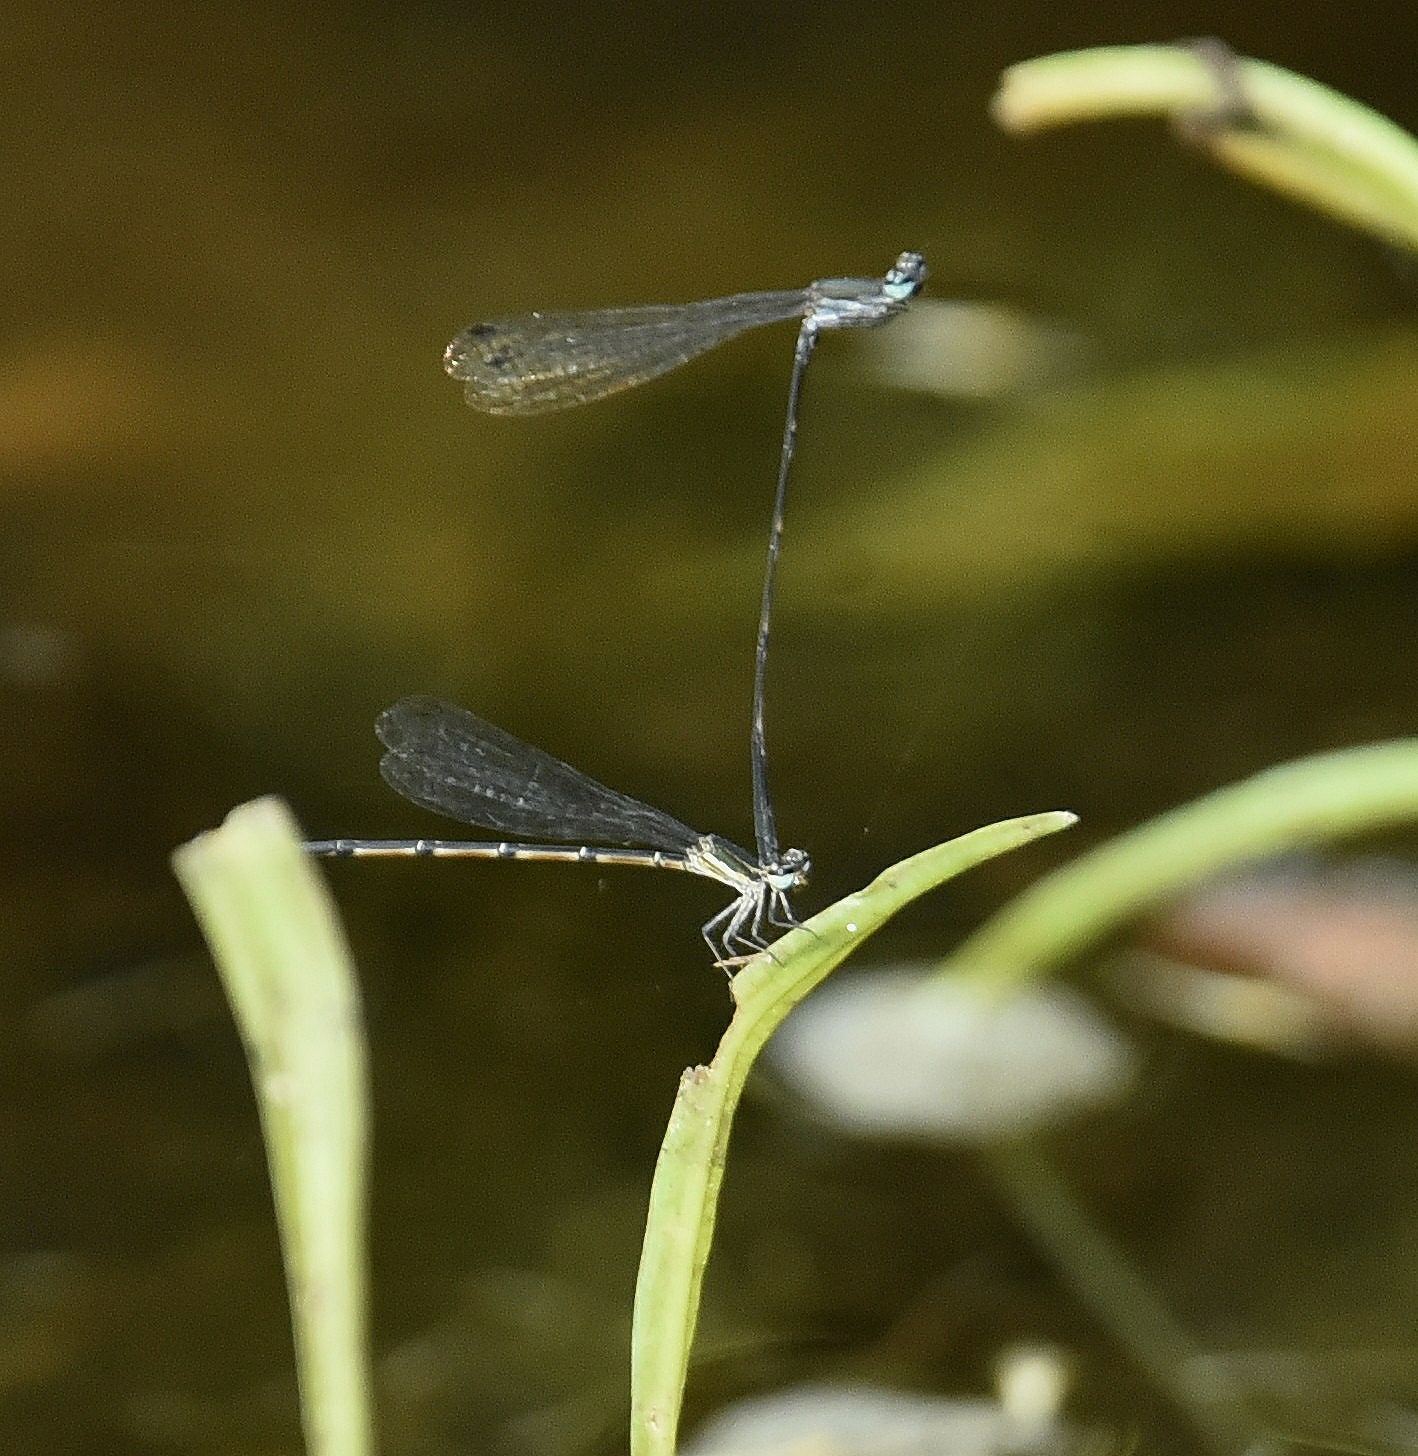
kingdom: Animalia
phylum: Arthropoda
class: Insecta
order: Odonata
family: Platycnemididae
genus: Elattoneura
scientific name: Elattoneura tetrica
